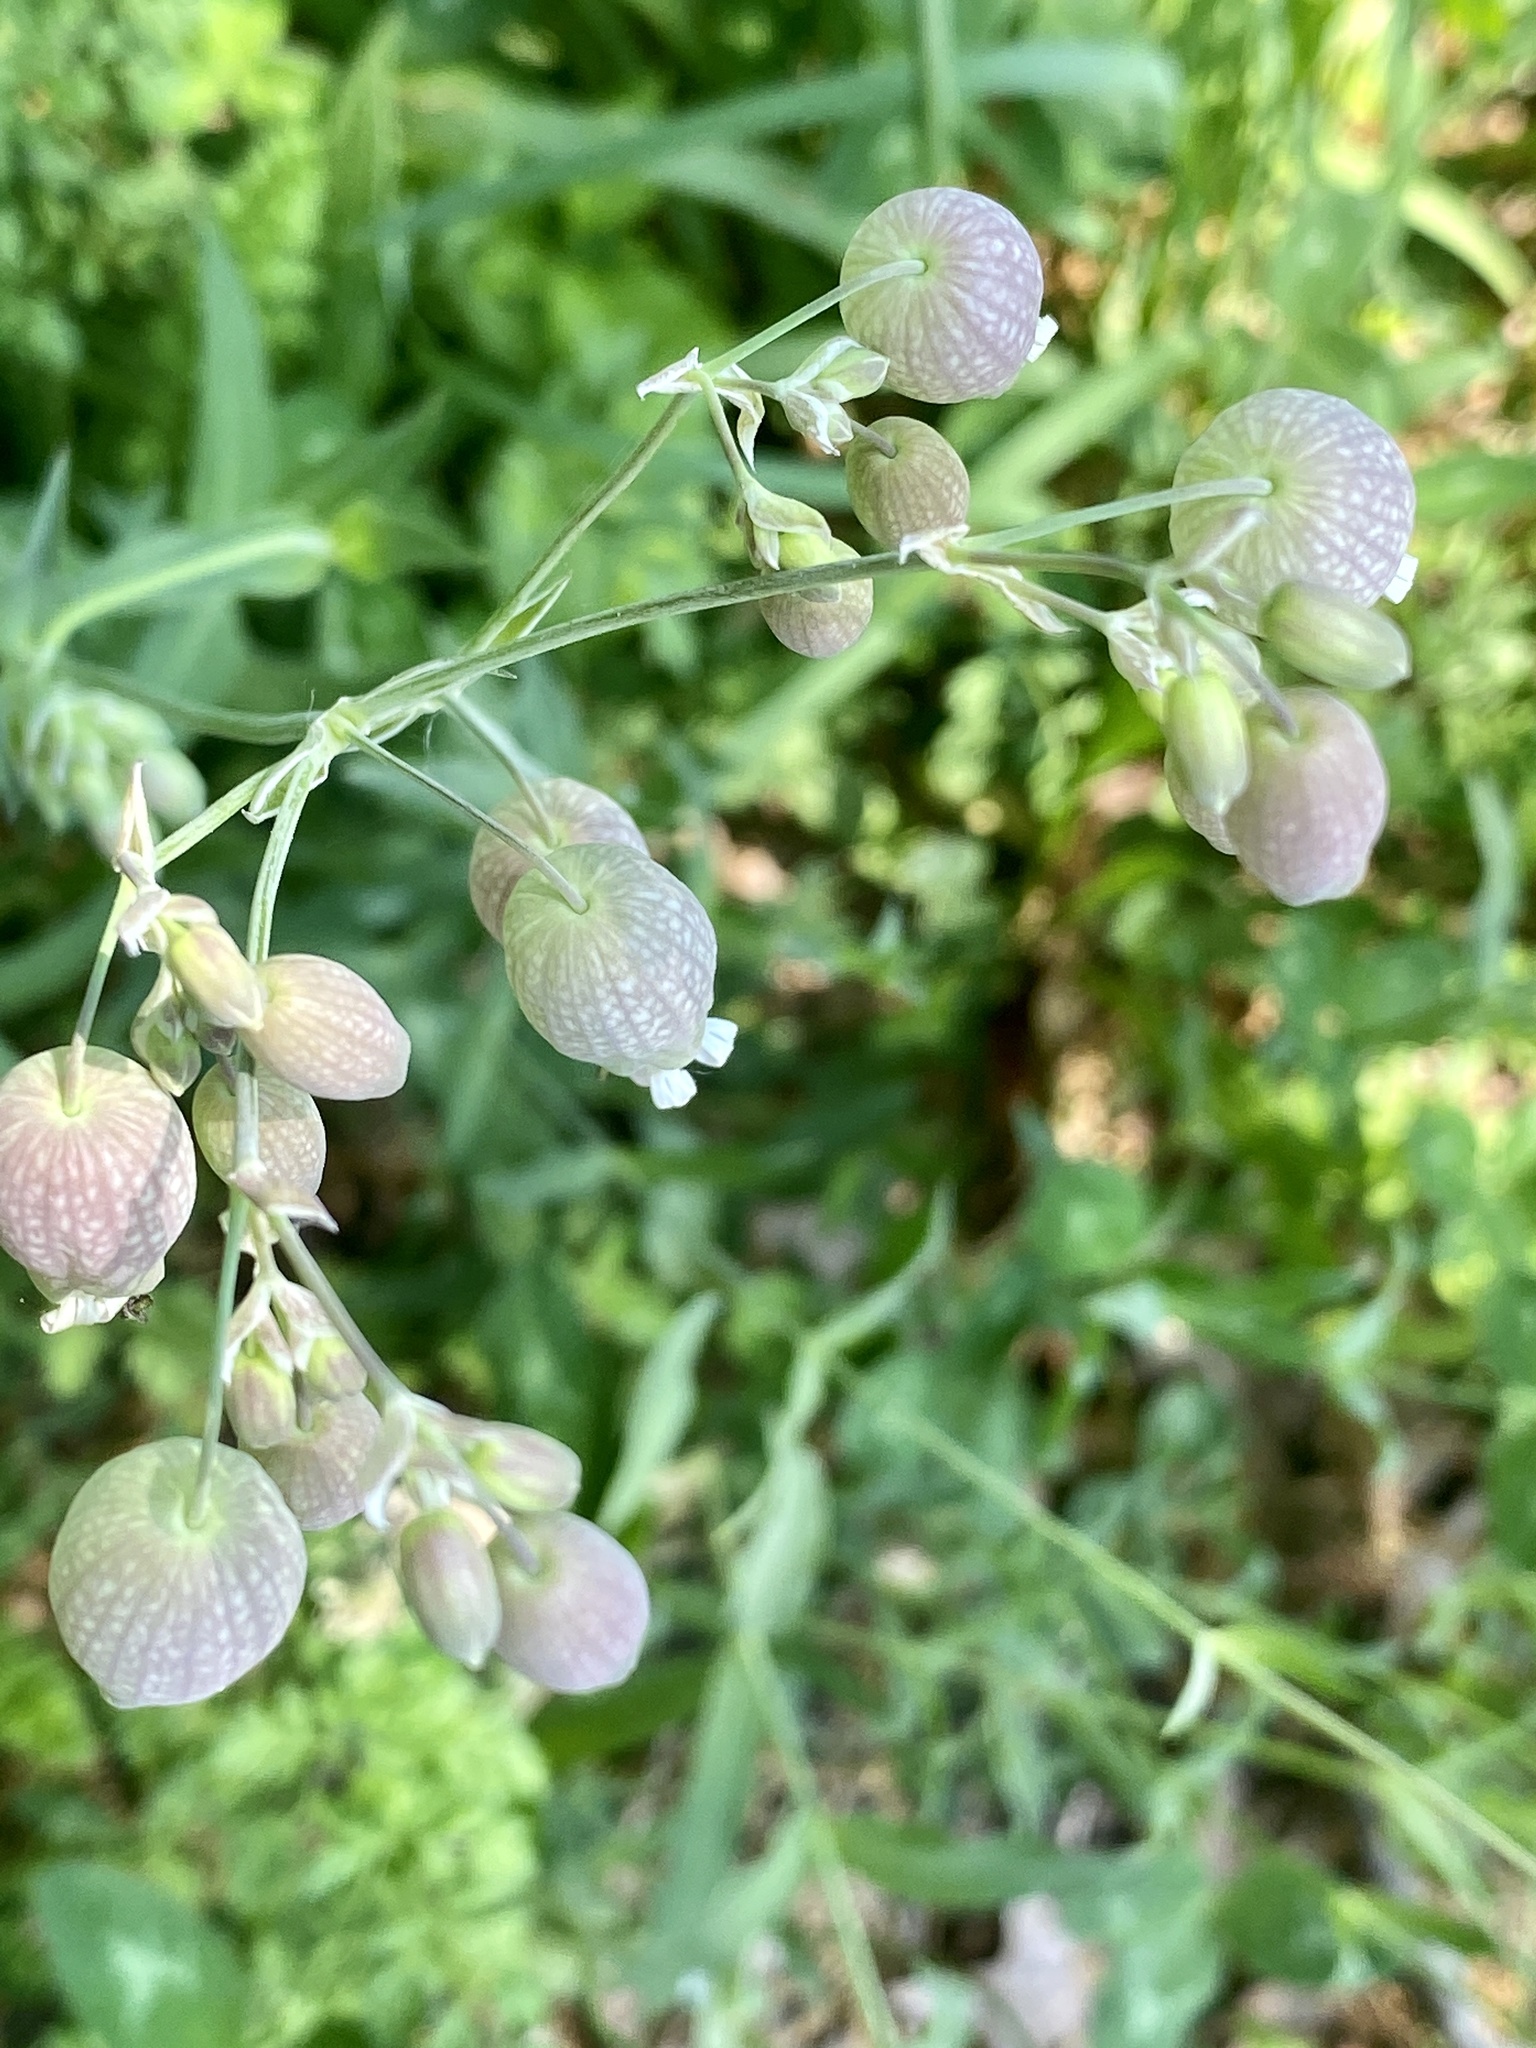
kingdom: Plantae
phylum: Tracheophyta
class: Magnoliopsida
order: Caryophyllales
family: Caryophyllaceae
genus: Silene
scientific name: Silene vulgaris
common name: Bladder campion
